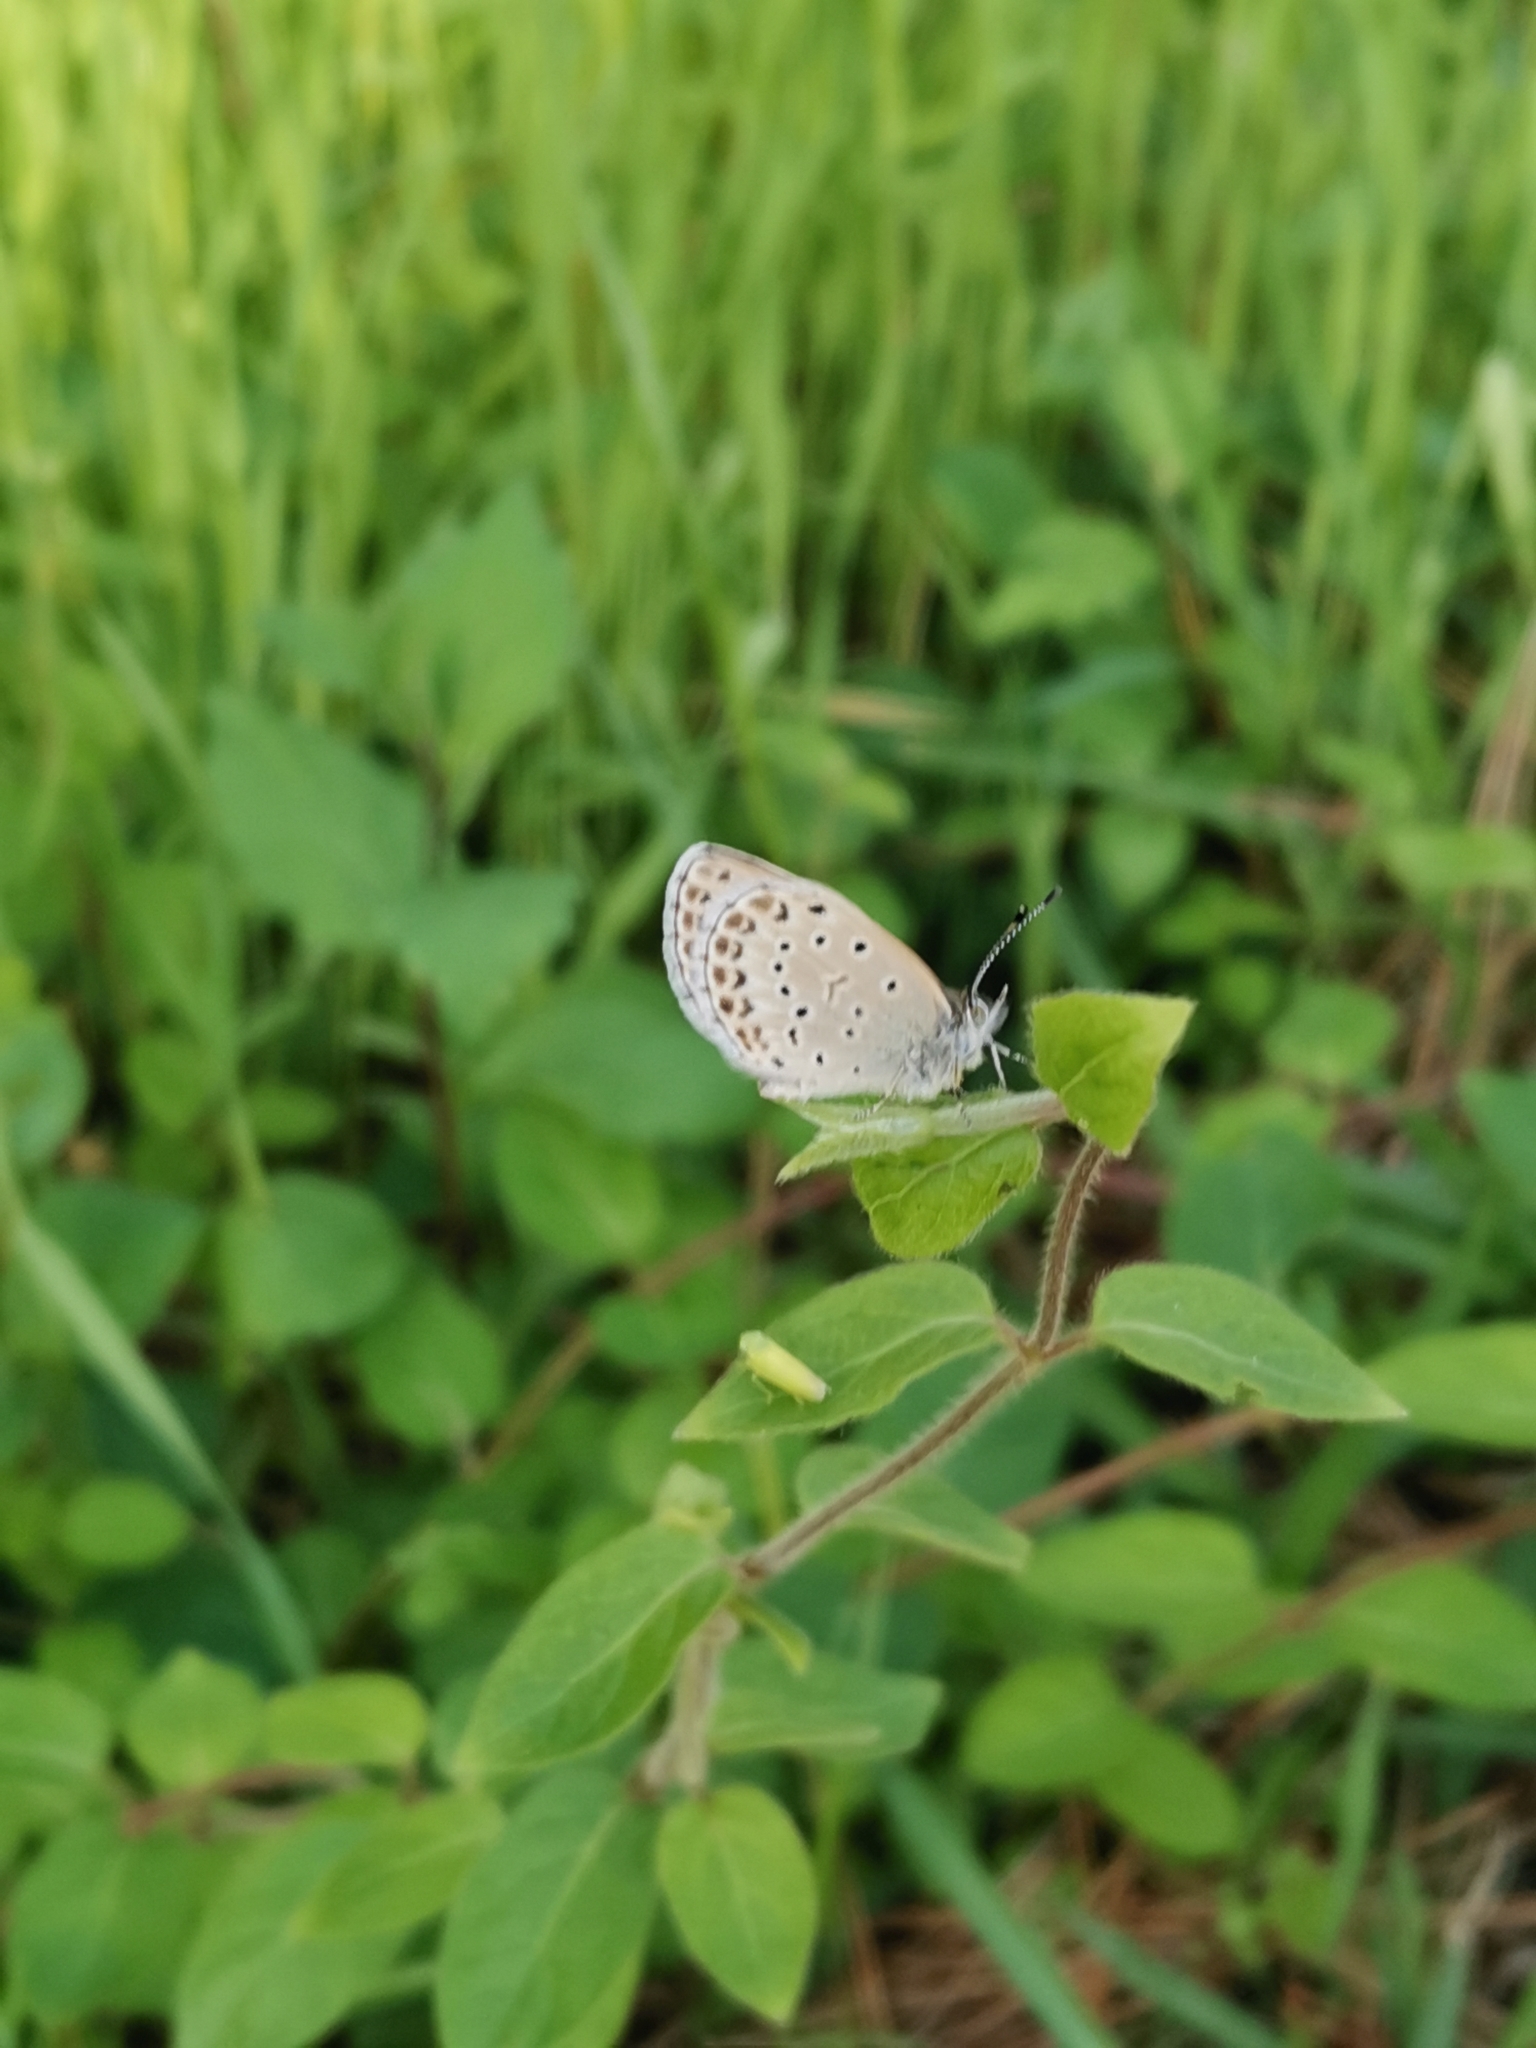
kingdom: Animalia
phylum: Arthropoda
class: Insecta
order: Lepidoptera
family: Lycaenidae
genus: Pseudozizeeria
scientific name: Pseudozizeeria maha
